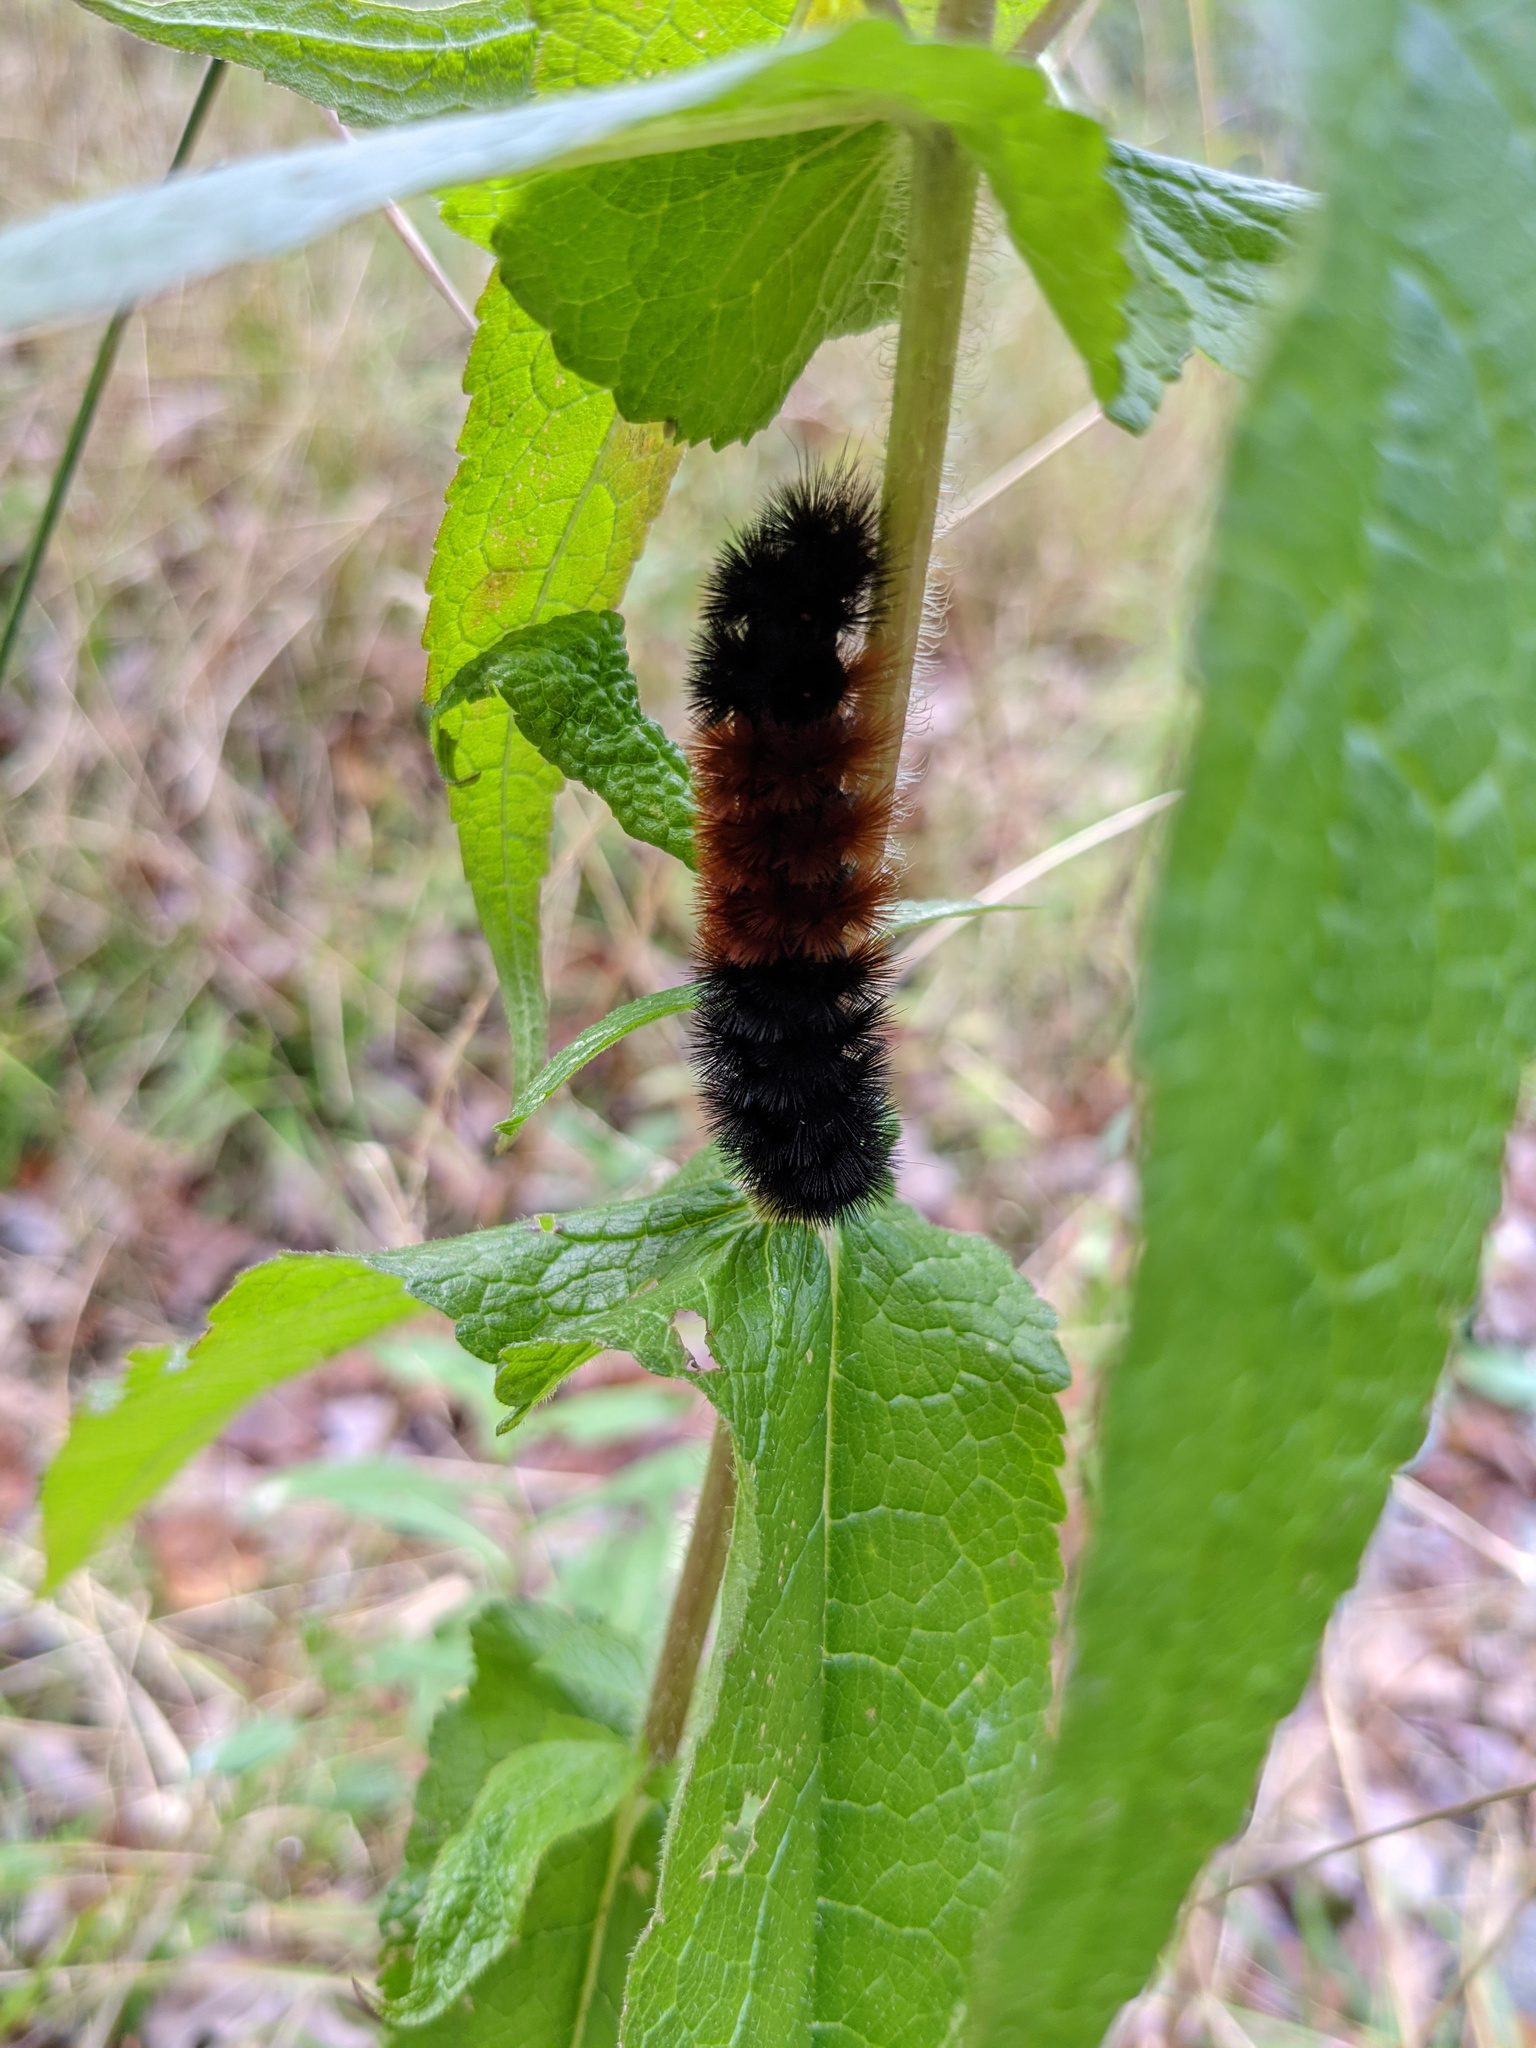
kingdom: Animalia
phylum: Arthropoda
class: Insecta
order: Lepidoptera
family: Erebidae
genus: Pyrrharctia
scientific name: Pyrrharctia isabella
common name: Isabella tiger moth
